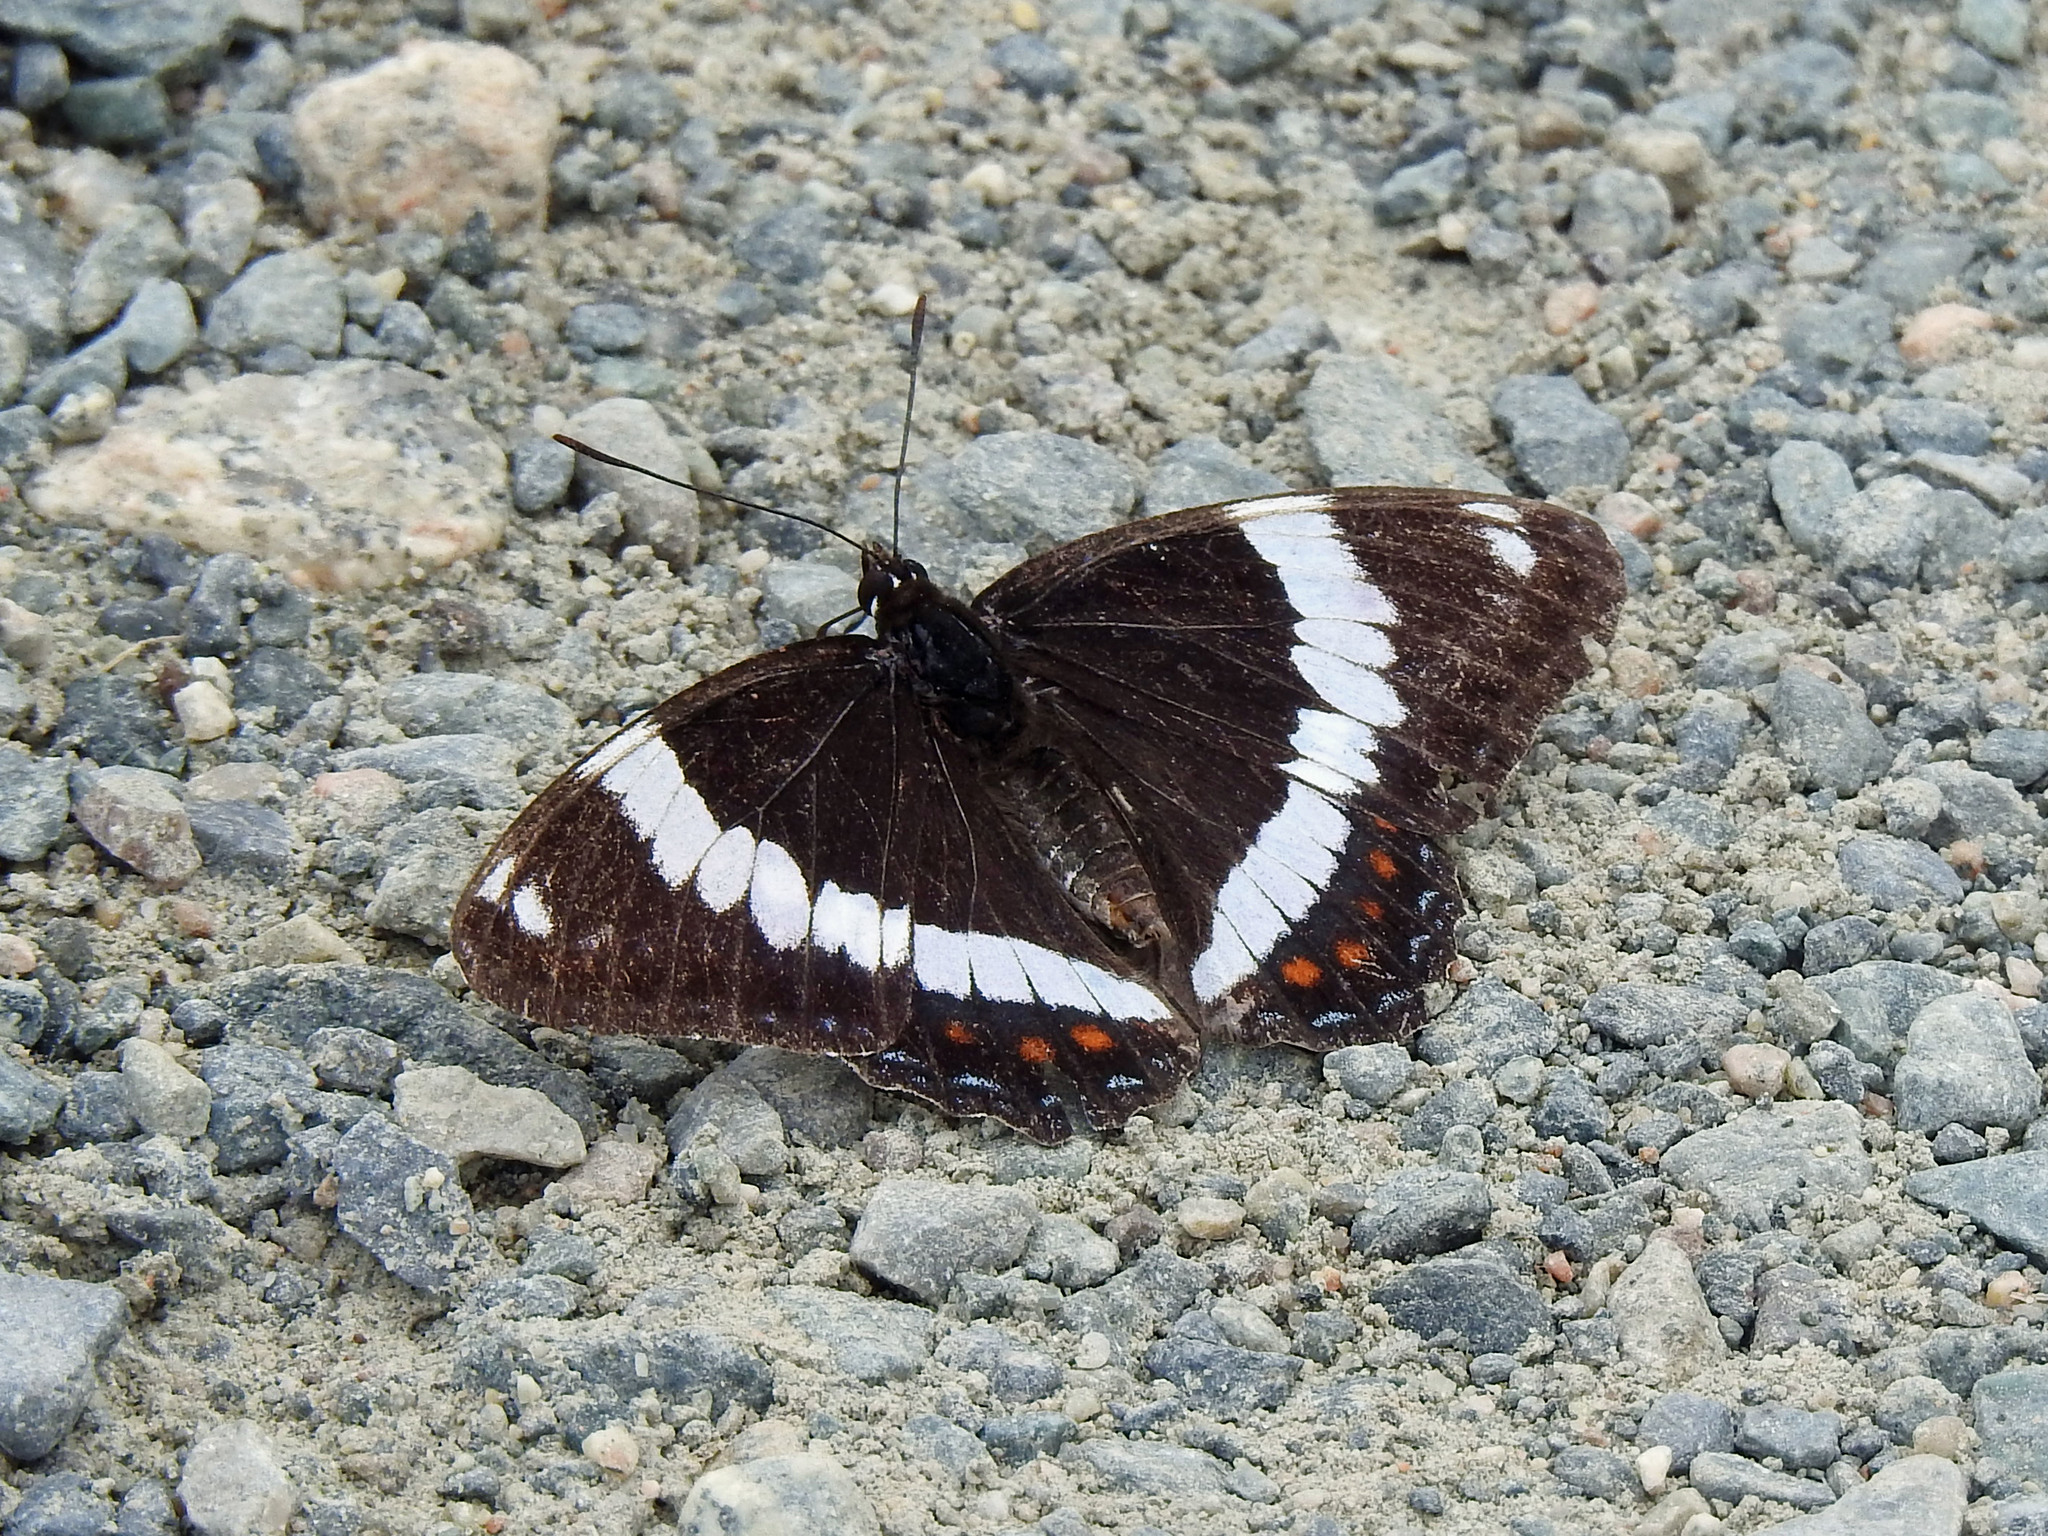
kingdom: Animalia
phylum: Arthropoda
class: Insecta
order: Lepidoptera
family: Nymphalidae
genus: Limenitis
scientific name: Limenitis arthemis
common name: Red-spotted admiral
